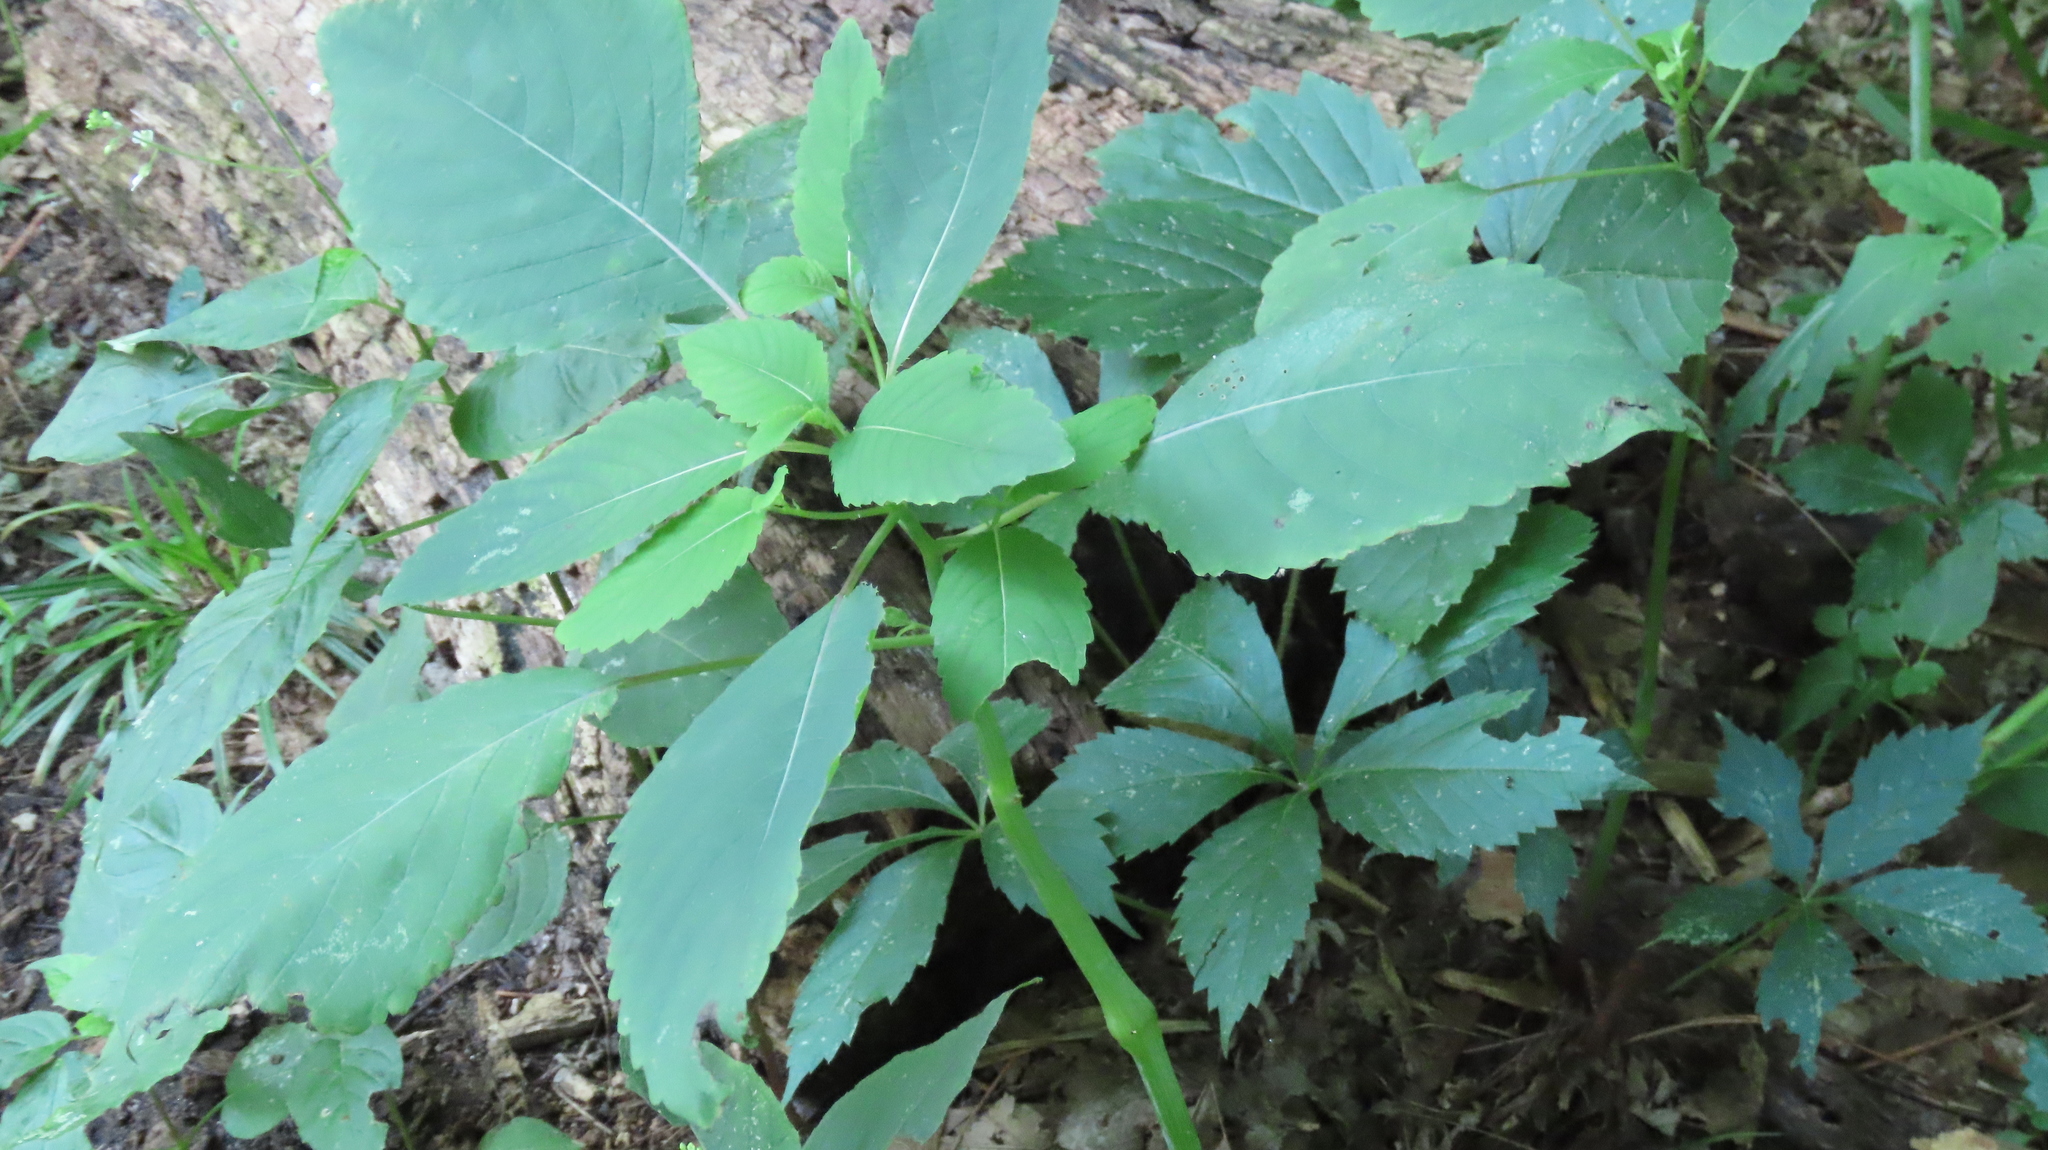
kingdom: Plantae
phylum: Tracheophyta
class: Magnoliopsida
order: Ericales
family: Balsaminaceae
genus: Impatiens
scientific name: Impatiens pallida
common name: Pale snapweed
